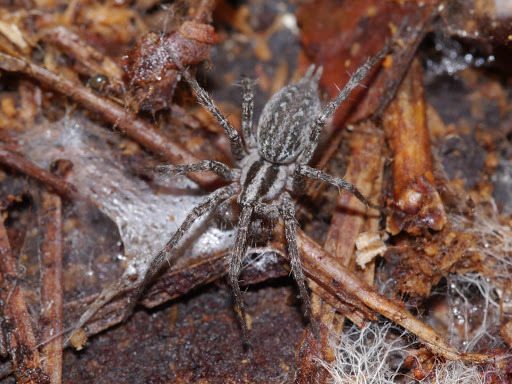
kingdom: Animalia
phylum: Arthropoda
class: Arachnida
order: Araneae
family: Agelenidae
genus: Agelenopsis
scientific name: Agelenopsis
